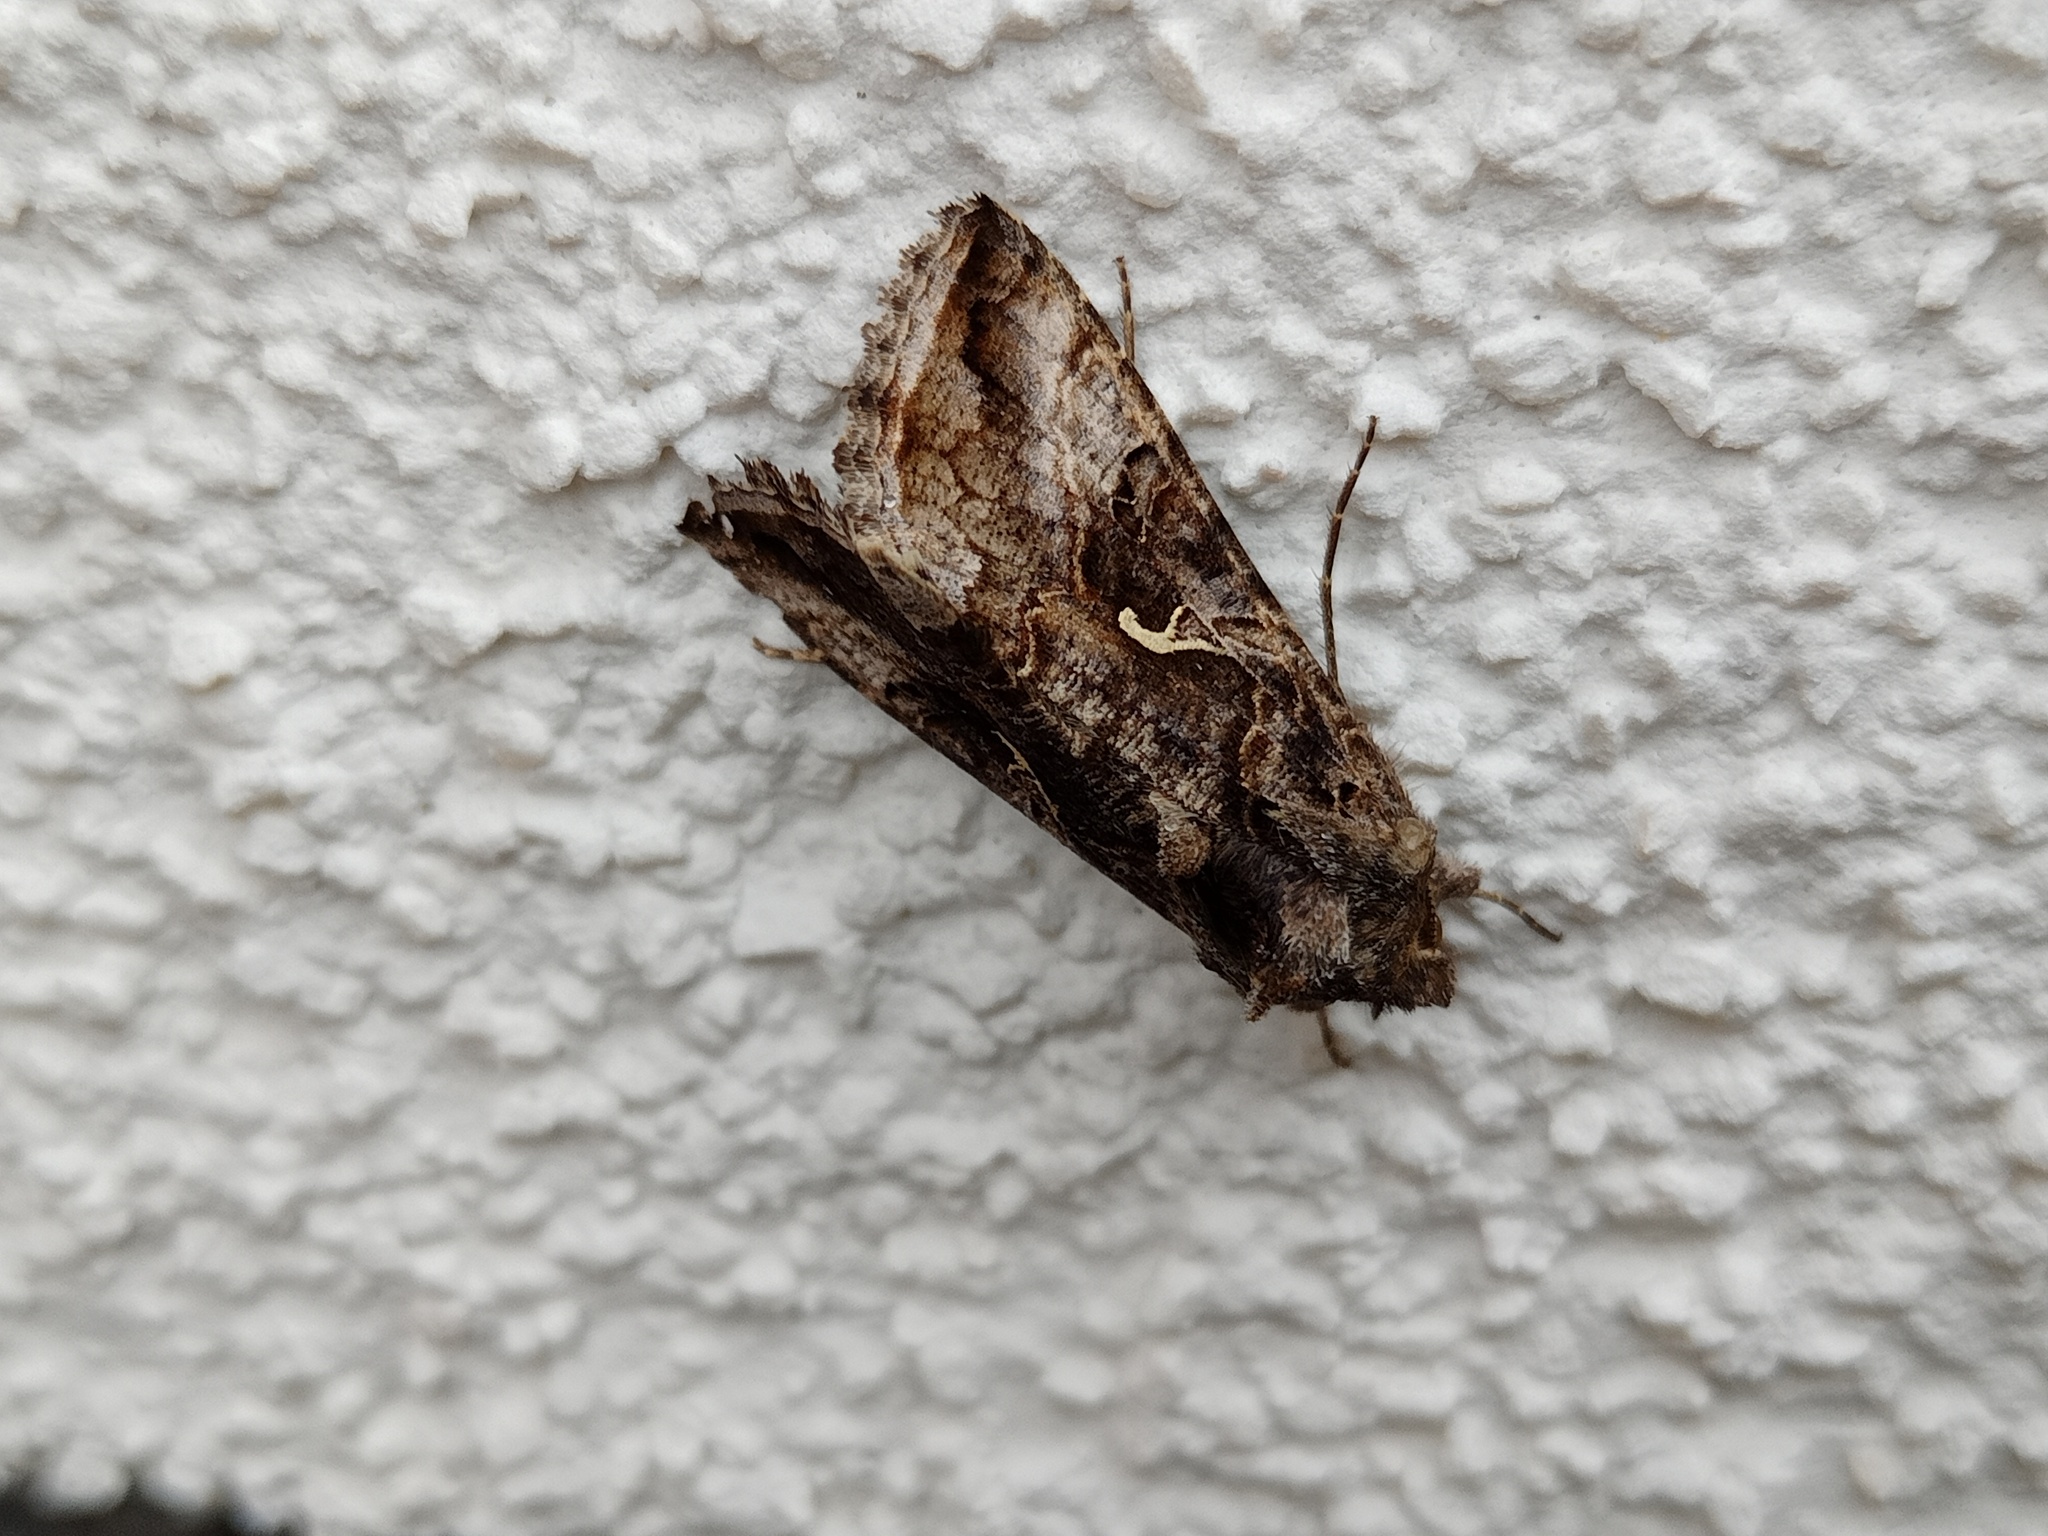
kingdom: Animalia
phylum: Arthropoda
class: Insecta
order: Lepidoptera
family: Noctuidae
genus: Autographa
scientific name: Autographa gamma
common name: Silver y
